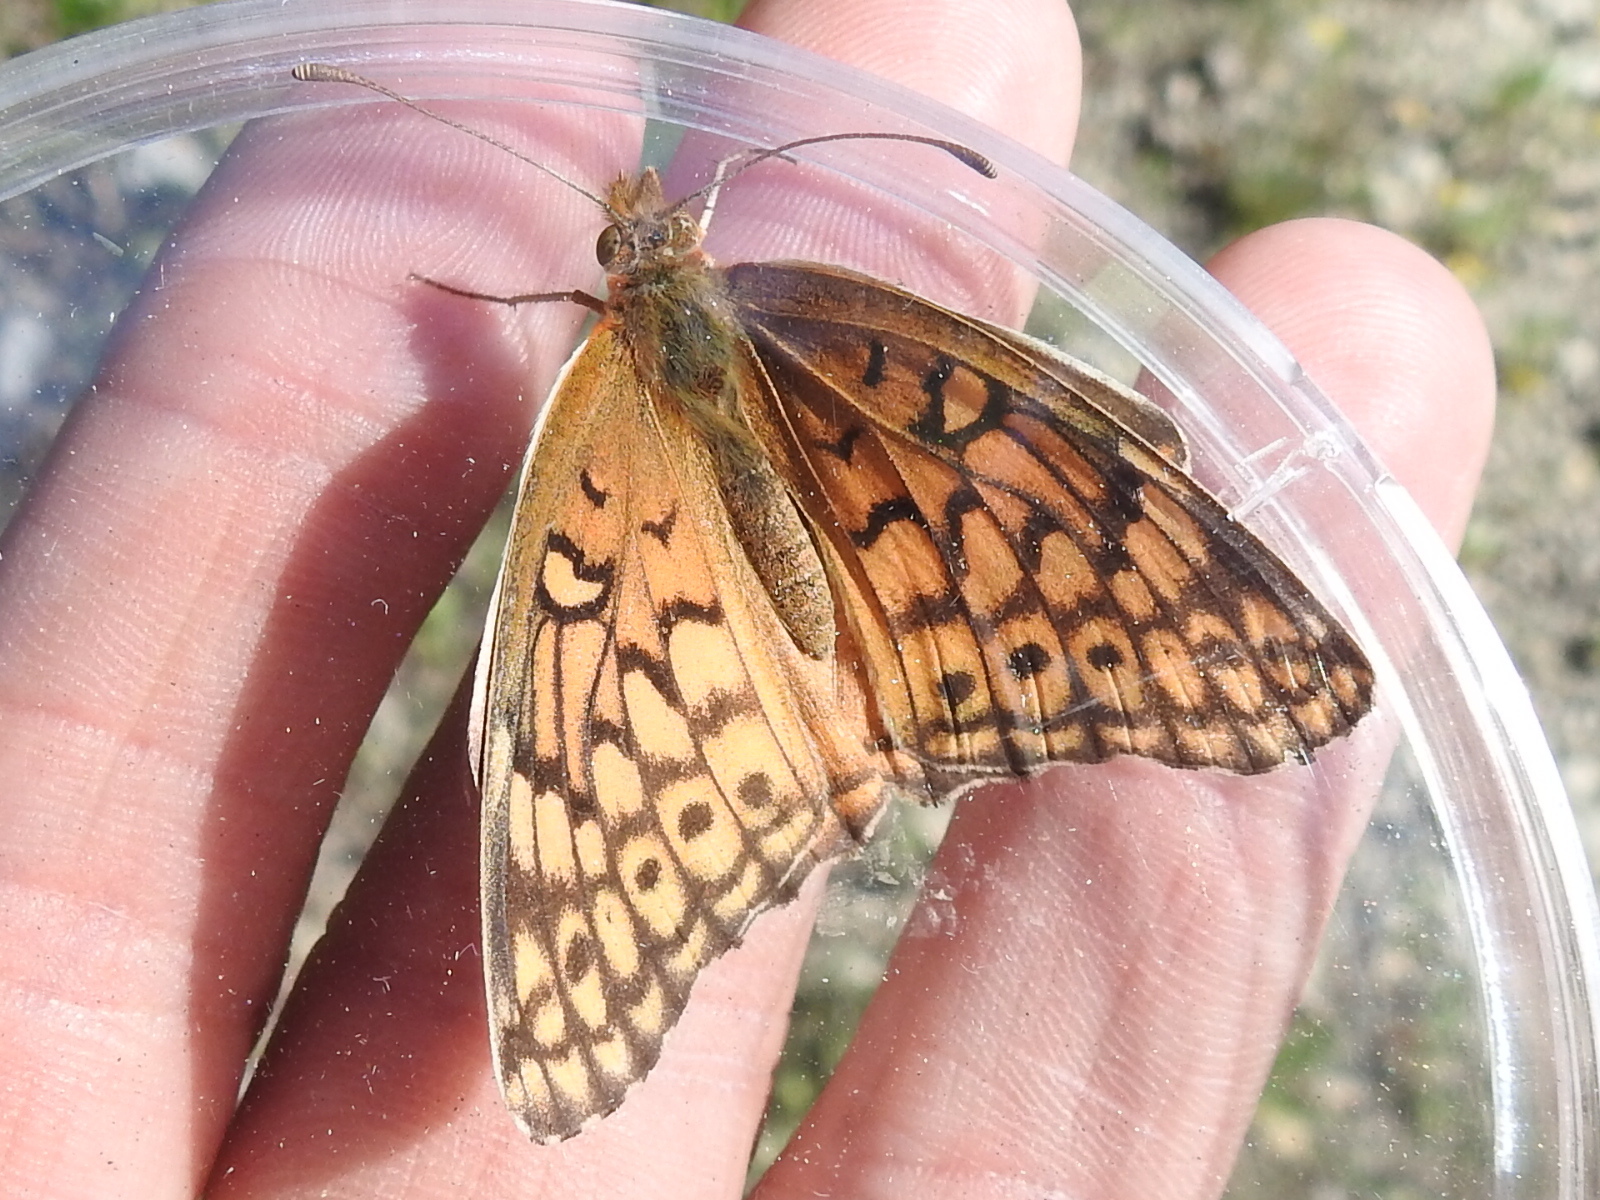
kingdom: Animalia
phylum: Arthropoda
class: Insecta
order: Lepidoptera
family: Nymphalidae
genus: Euptoieta
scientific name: Euptoieta claudia
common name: Variegated fritillary
